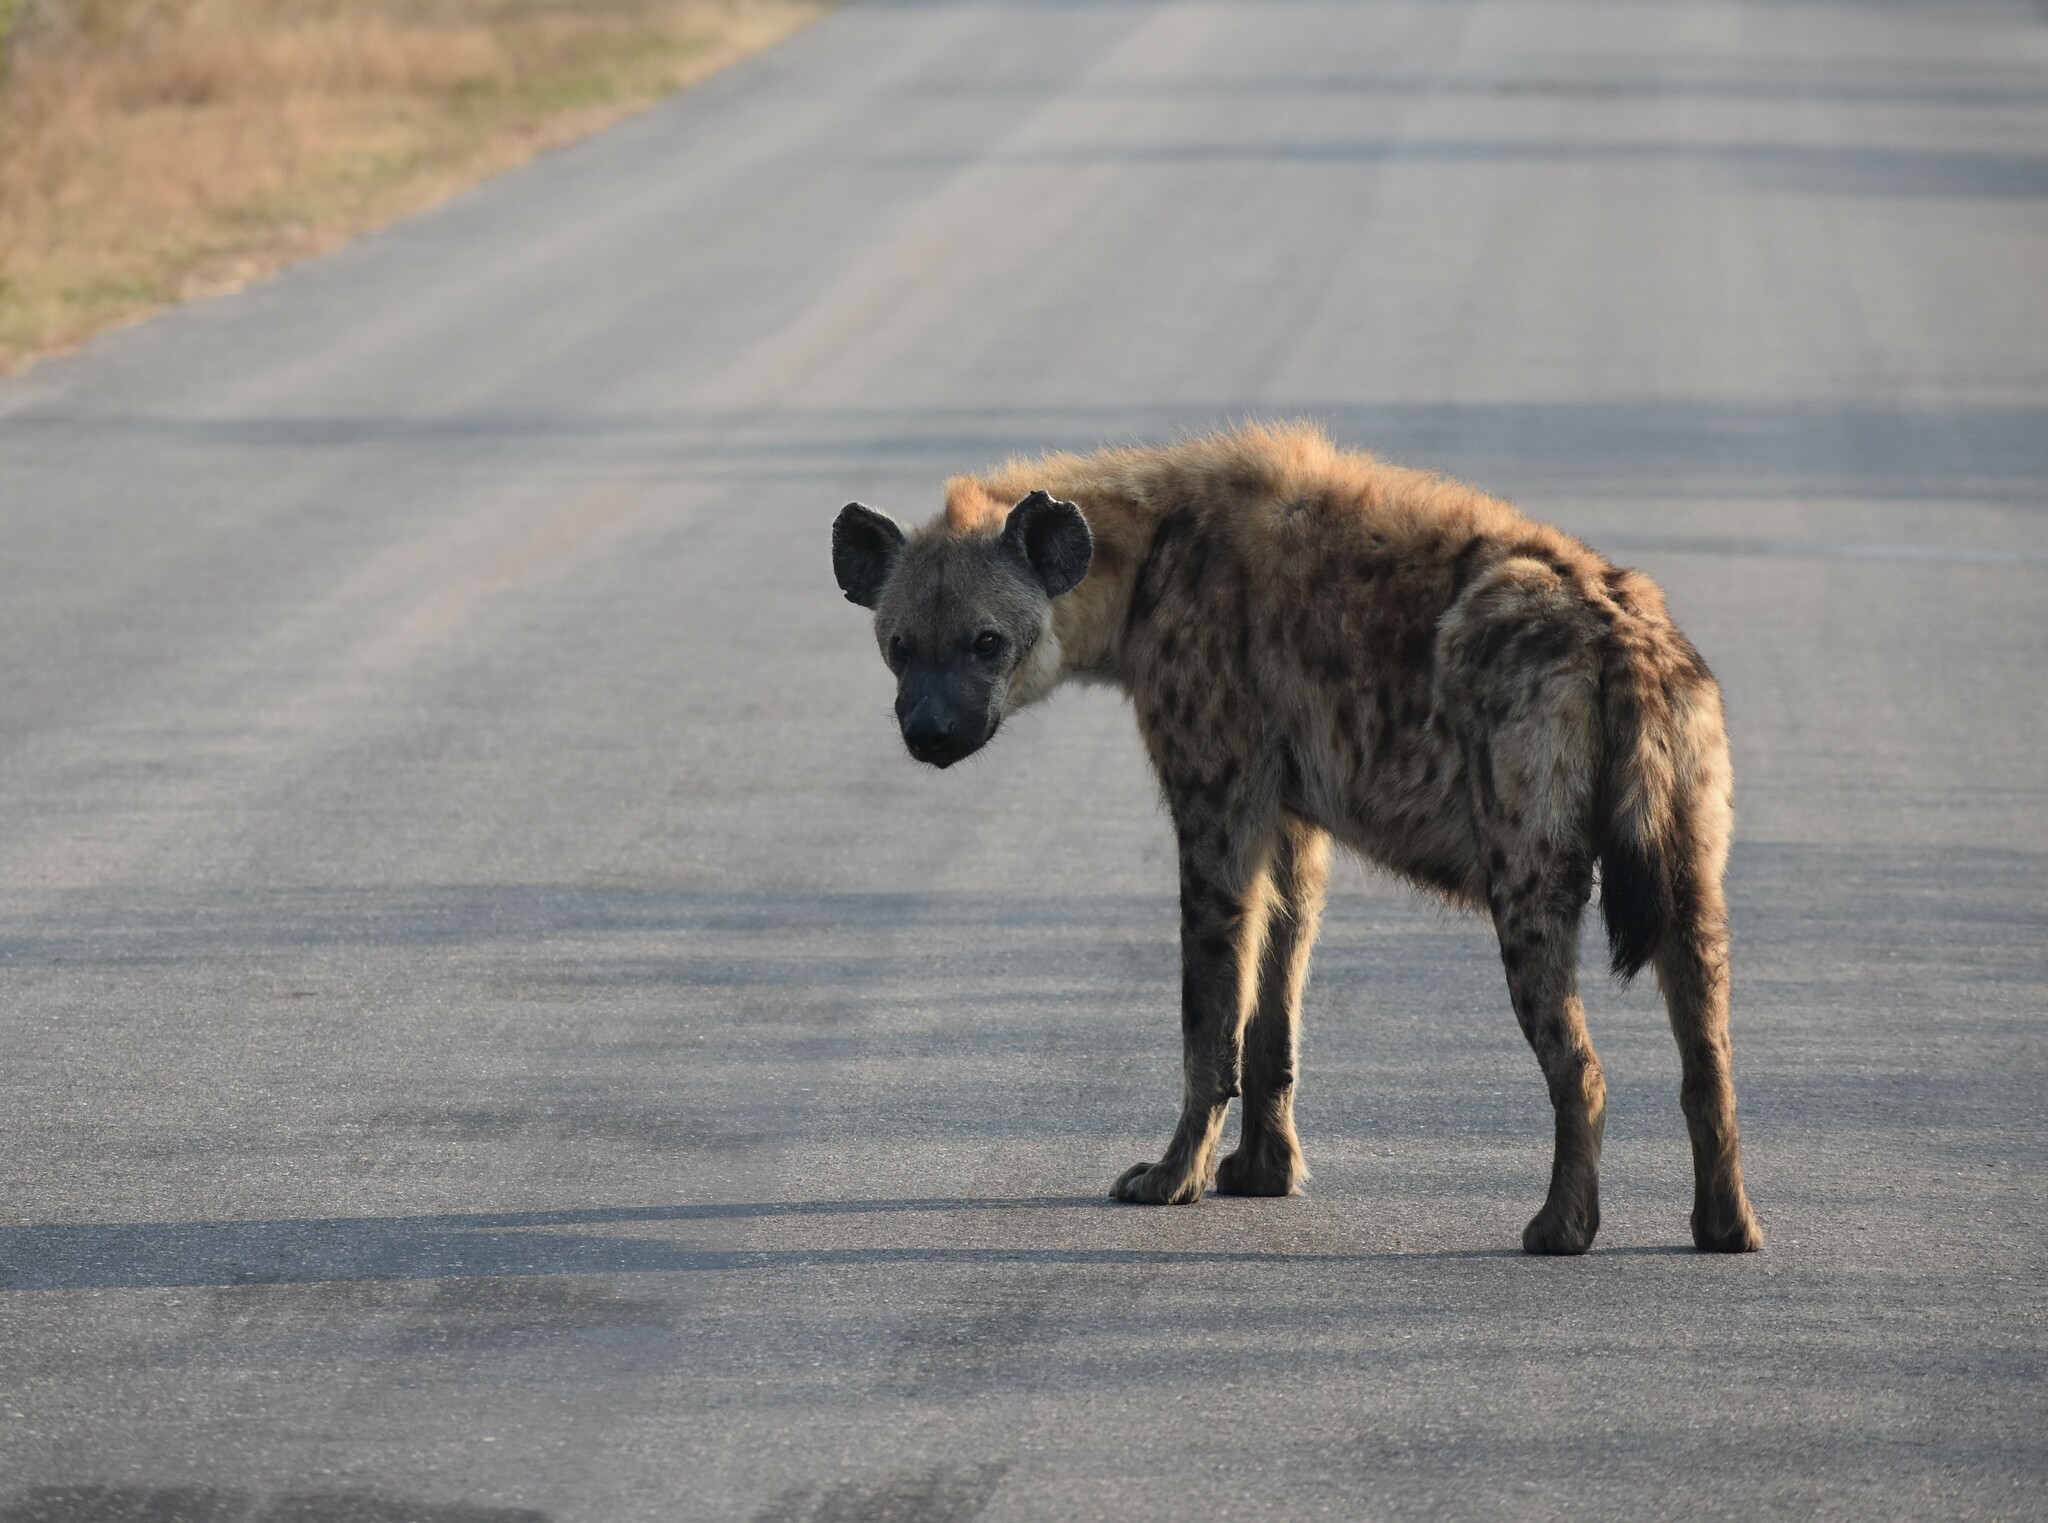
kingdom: Animalia
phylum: Chordata
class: Mammalia
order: Carnivora
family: Hyaenidae
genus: Crocuta
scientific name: Crocuta crocuta
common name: Spotted hyaena
